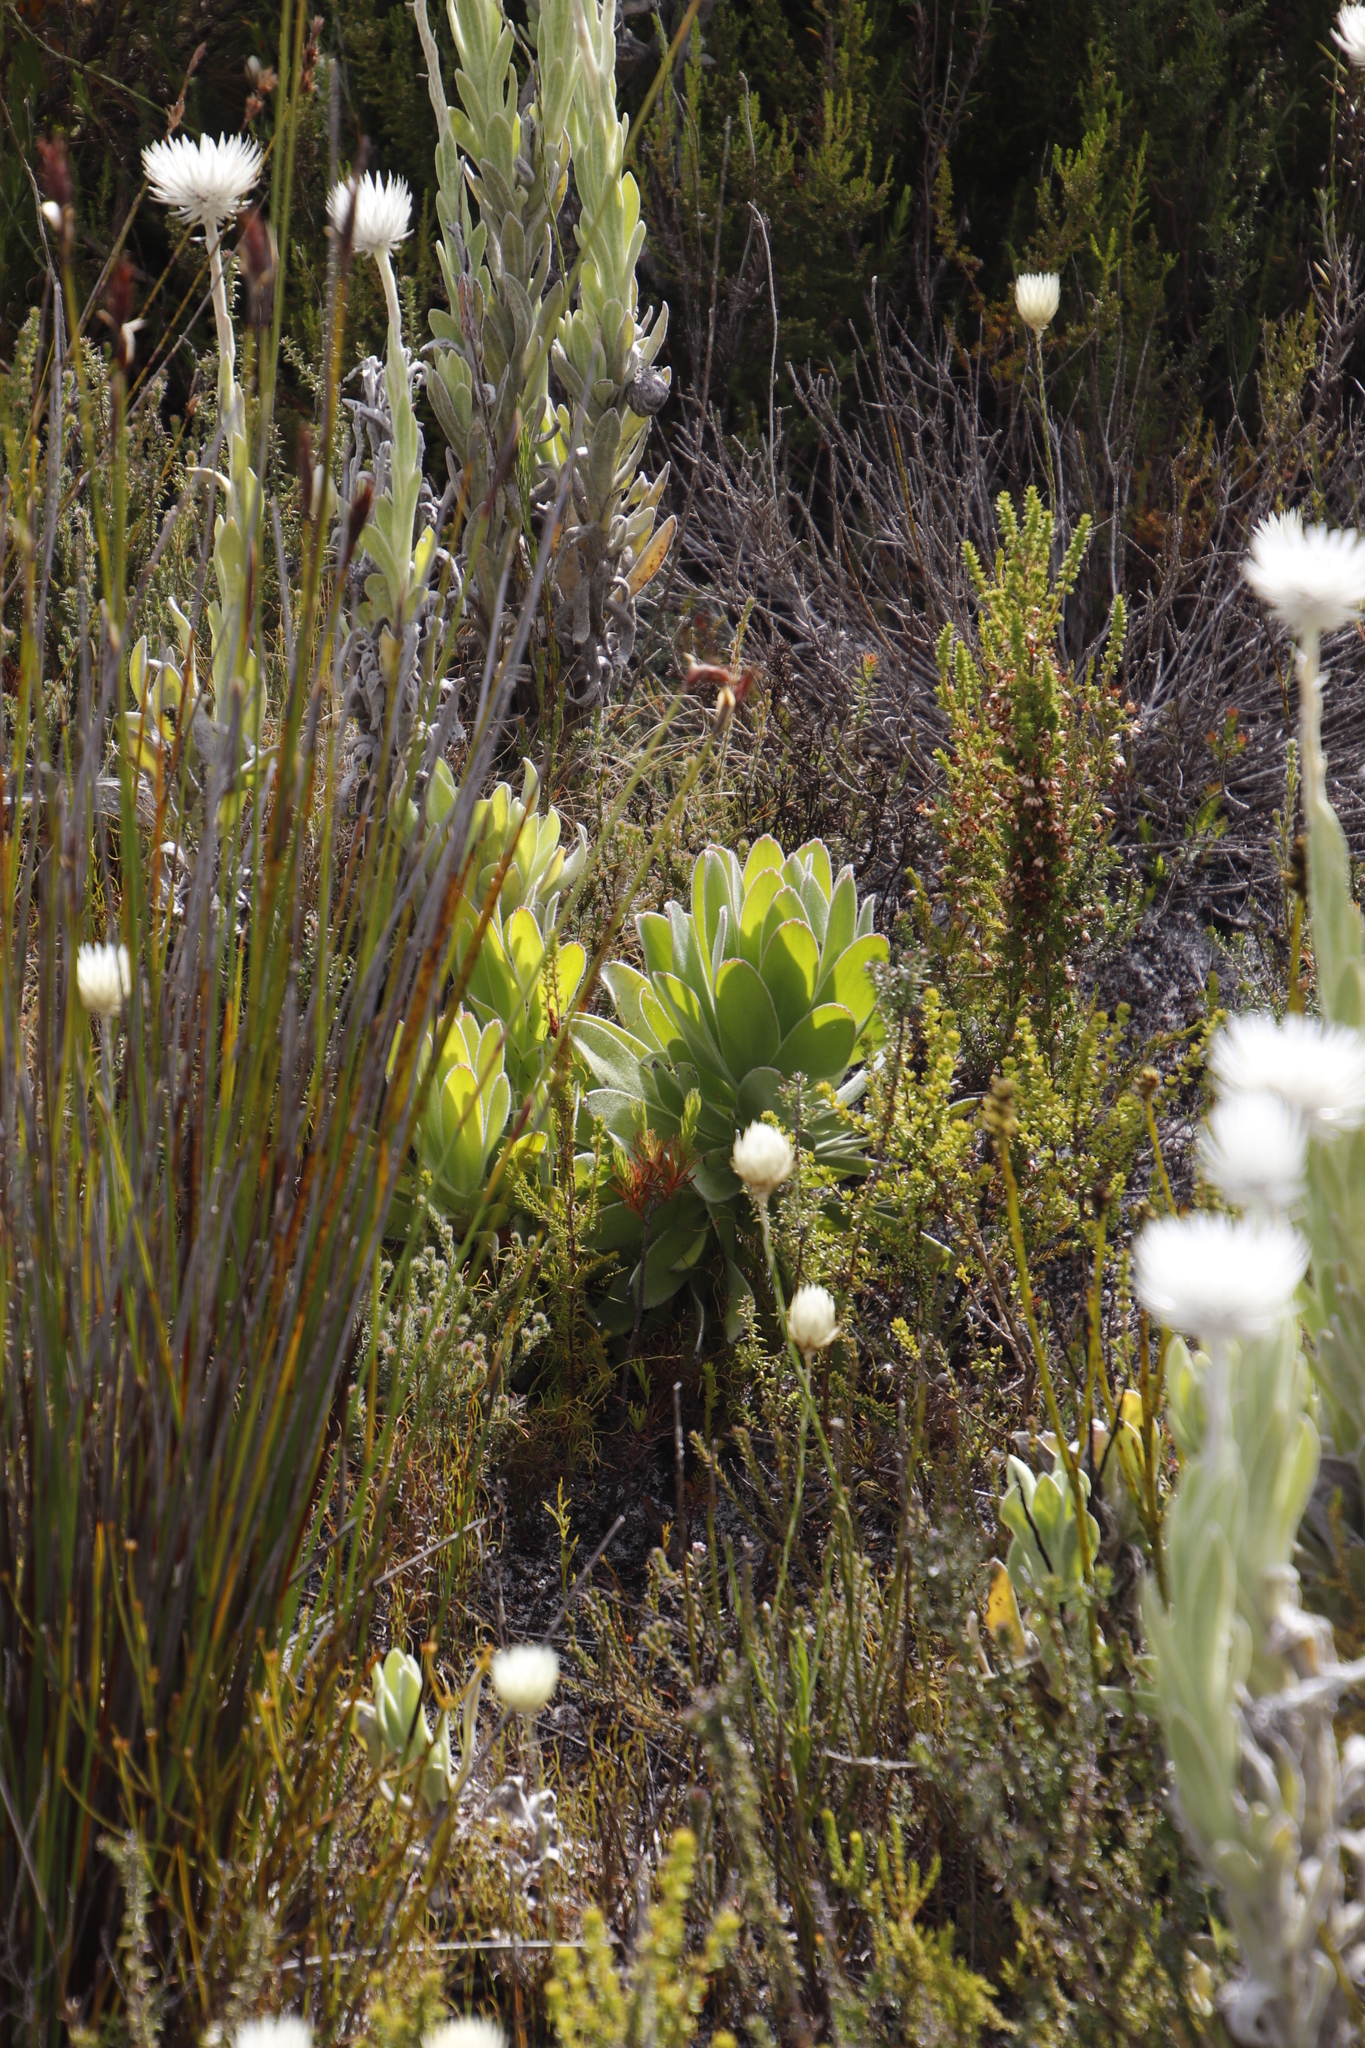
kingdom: Plantae
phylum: Tracheophyta
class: Magnoliopsida
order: Proteales
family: Proteaceae
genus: Mimetes
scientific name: Mimetes fimbriifolius
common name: Fringed bottlebrush
